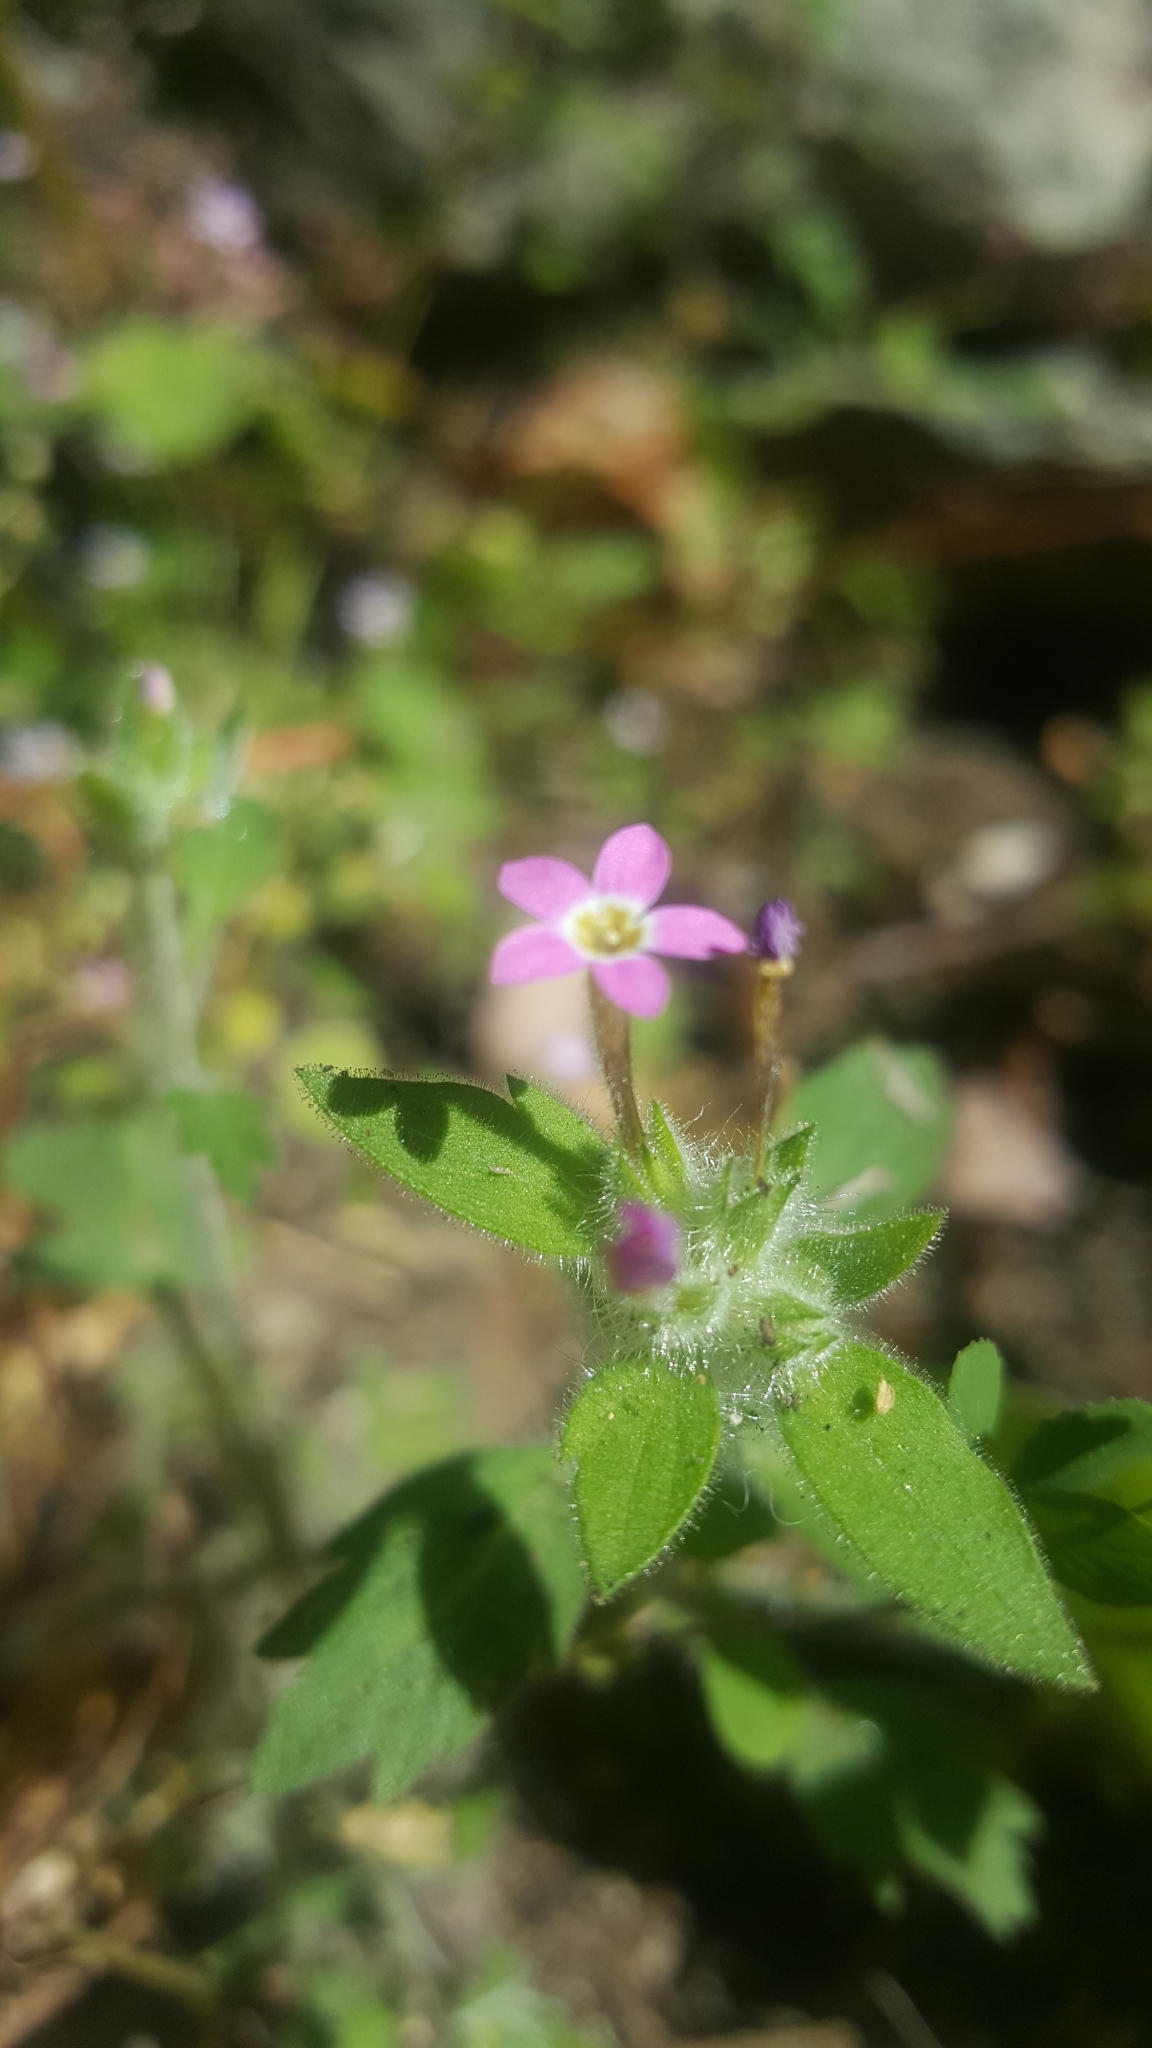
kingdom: Plantae
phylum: Tracheophyta
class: Magnoliopsida
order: Ericales
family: Polemoniaceae
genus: Collomia
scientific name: Collomia heterophylla
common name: Variable-leaved collomia
